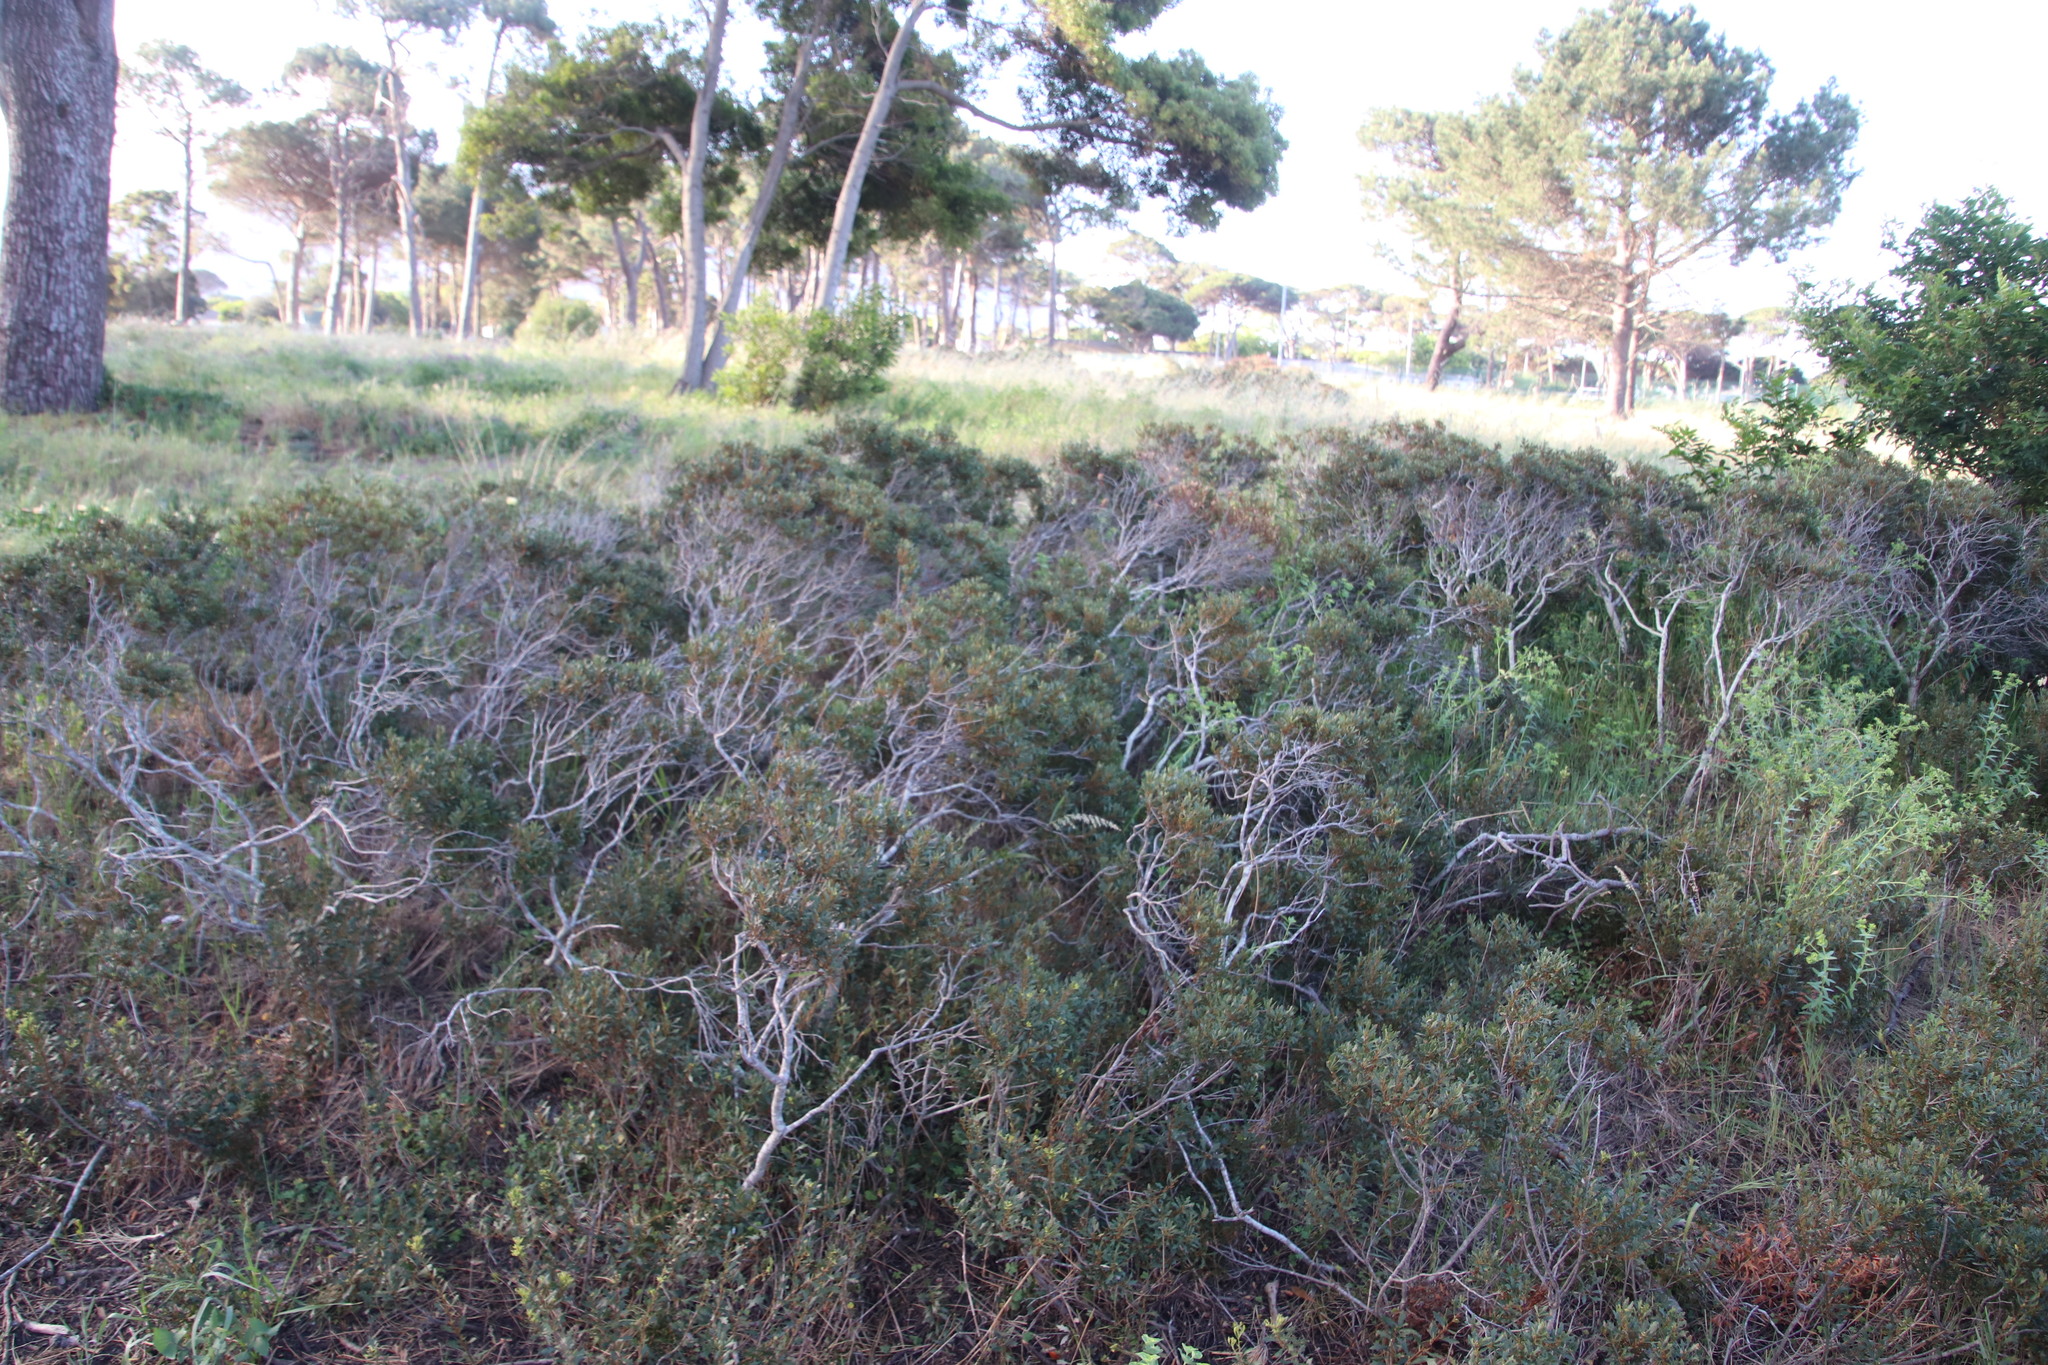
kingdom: Plantae
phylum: Tracheophyta
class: Magnoliopsida
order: Fagales
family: Myricaceae
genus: Morella
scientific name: Morella quercifolia
